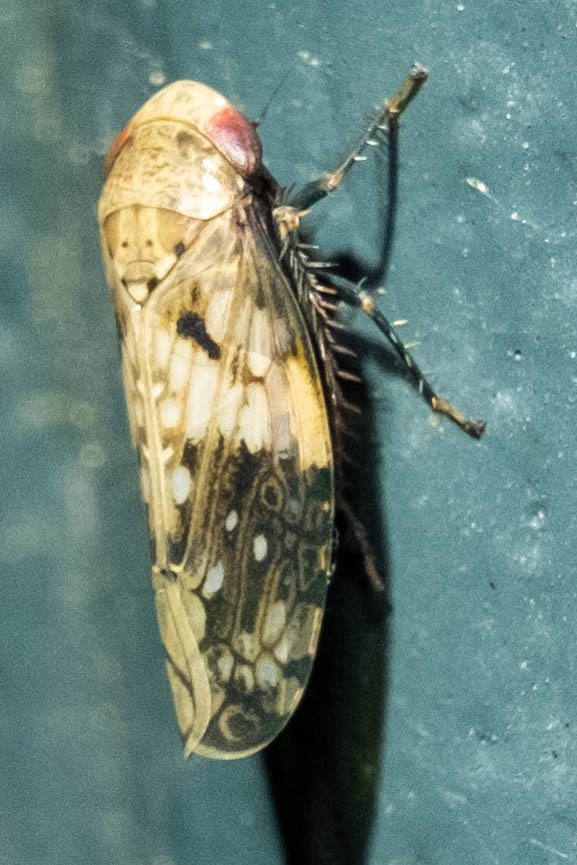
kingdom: Animalia
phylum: Arthropoda
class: Insecta
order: Hemiptera
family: Cicadellidae
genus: Menosoma
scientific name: Menosoma cinctum
